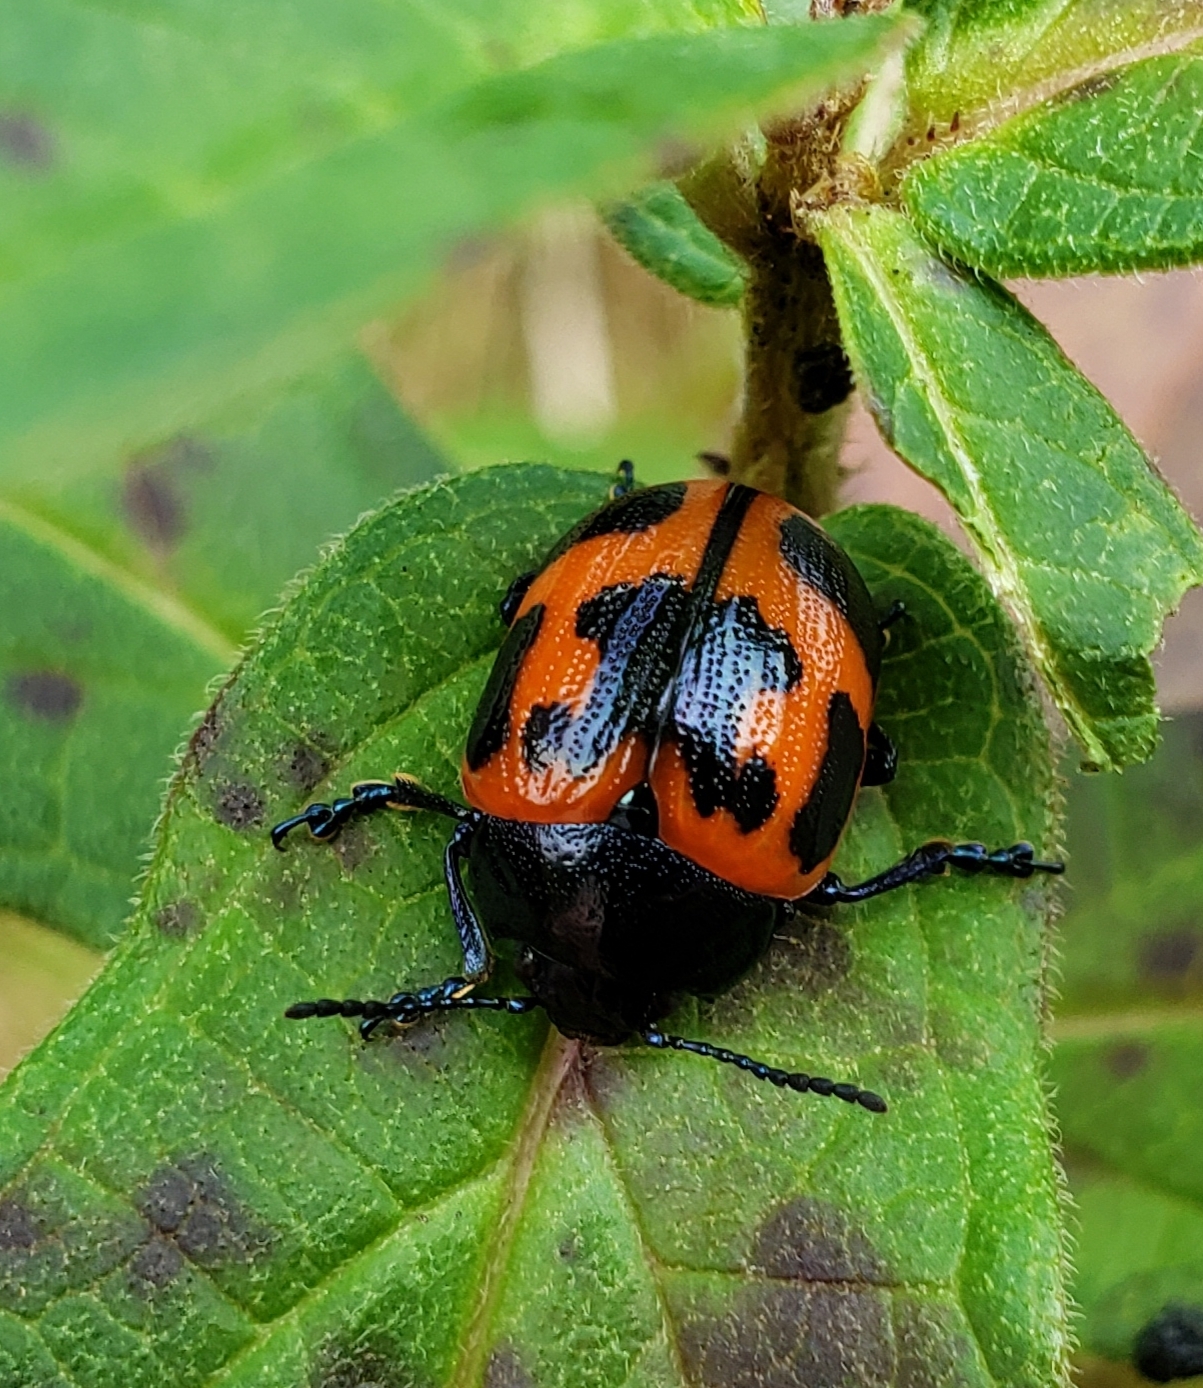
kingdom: Animalia
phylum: Arthropoda
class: Insecta
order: Coleoptera
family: Chrysomelidae
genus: Labidomera
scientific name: Labidomera clivicollis
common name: Swamp milkweed leaf beetle
